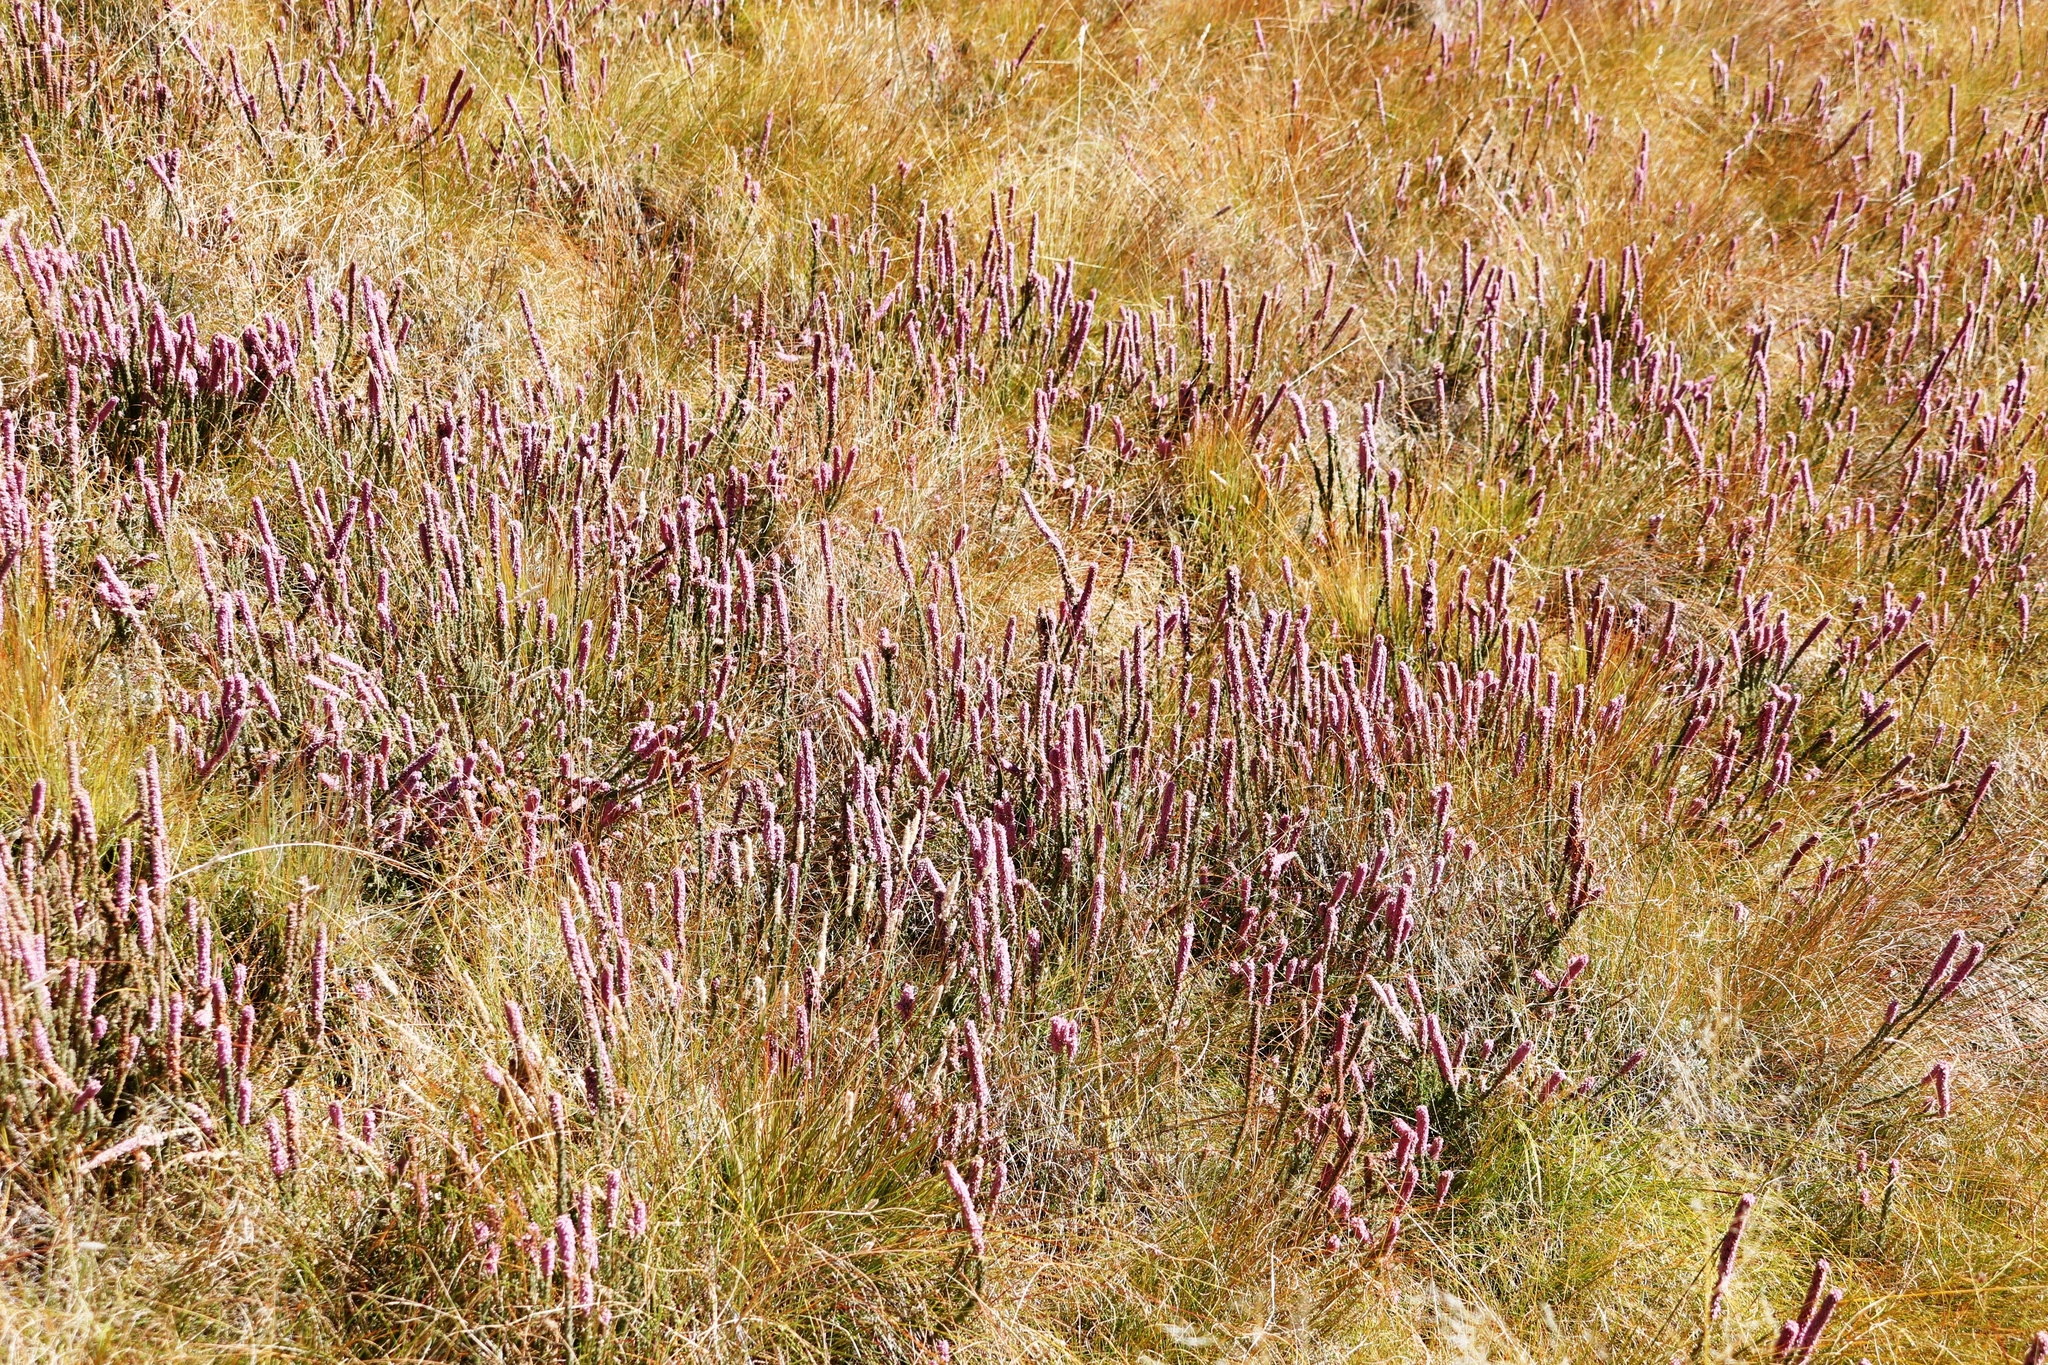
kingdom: Plantae
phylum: Tracheophyta
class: Magnoliopsida
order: Ericales
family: Ericaceae
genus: Erica
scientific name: Erica alopecurus
